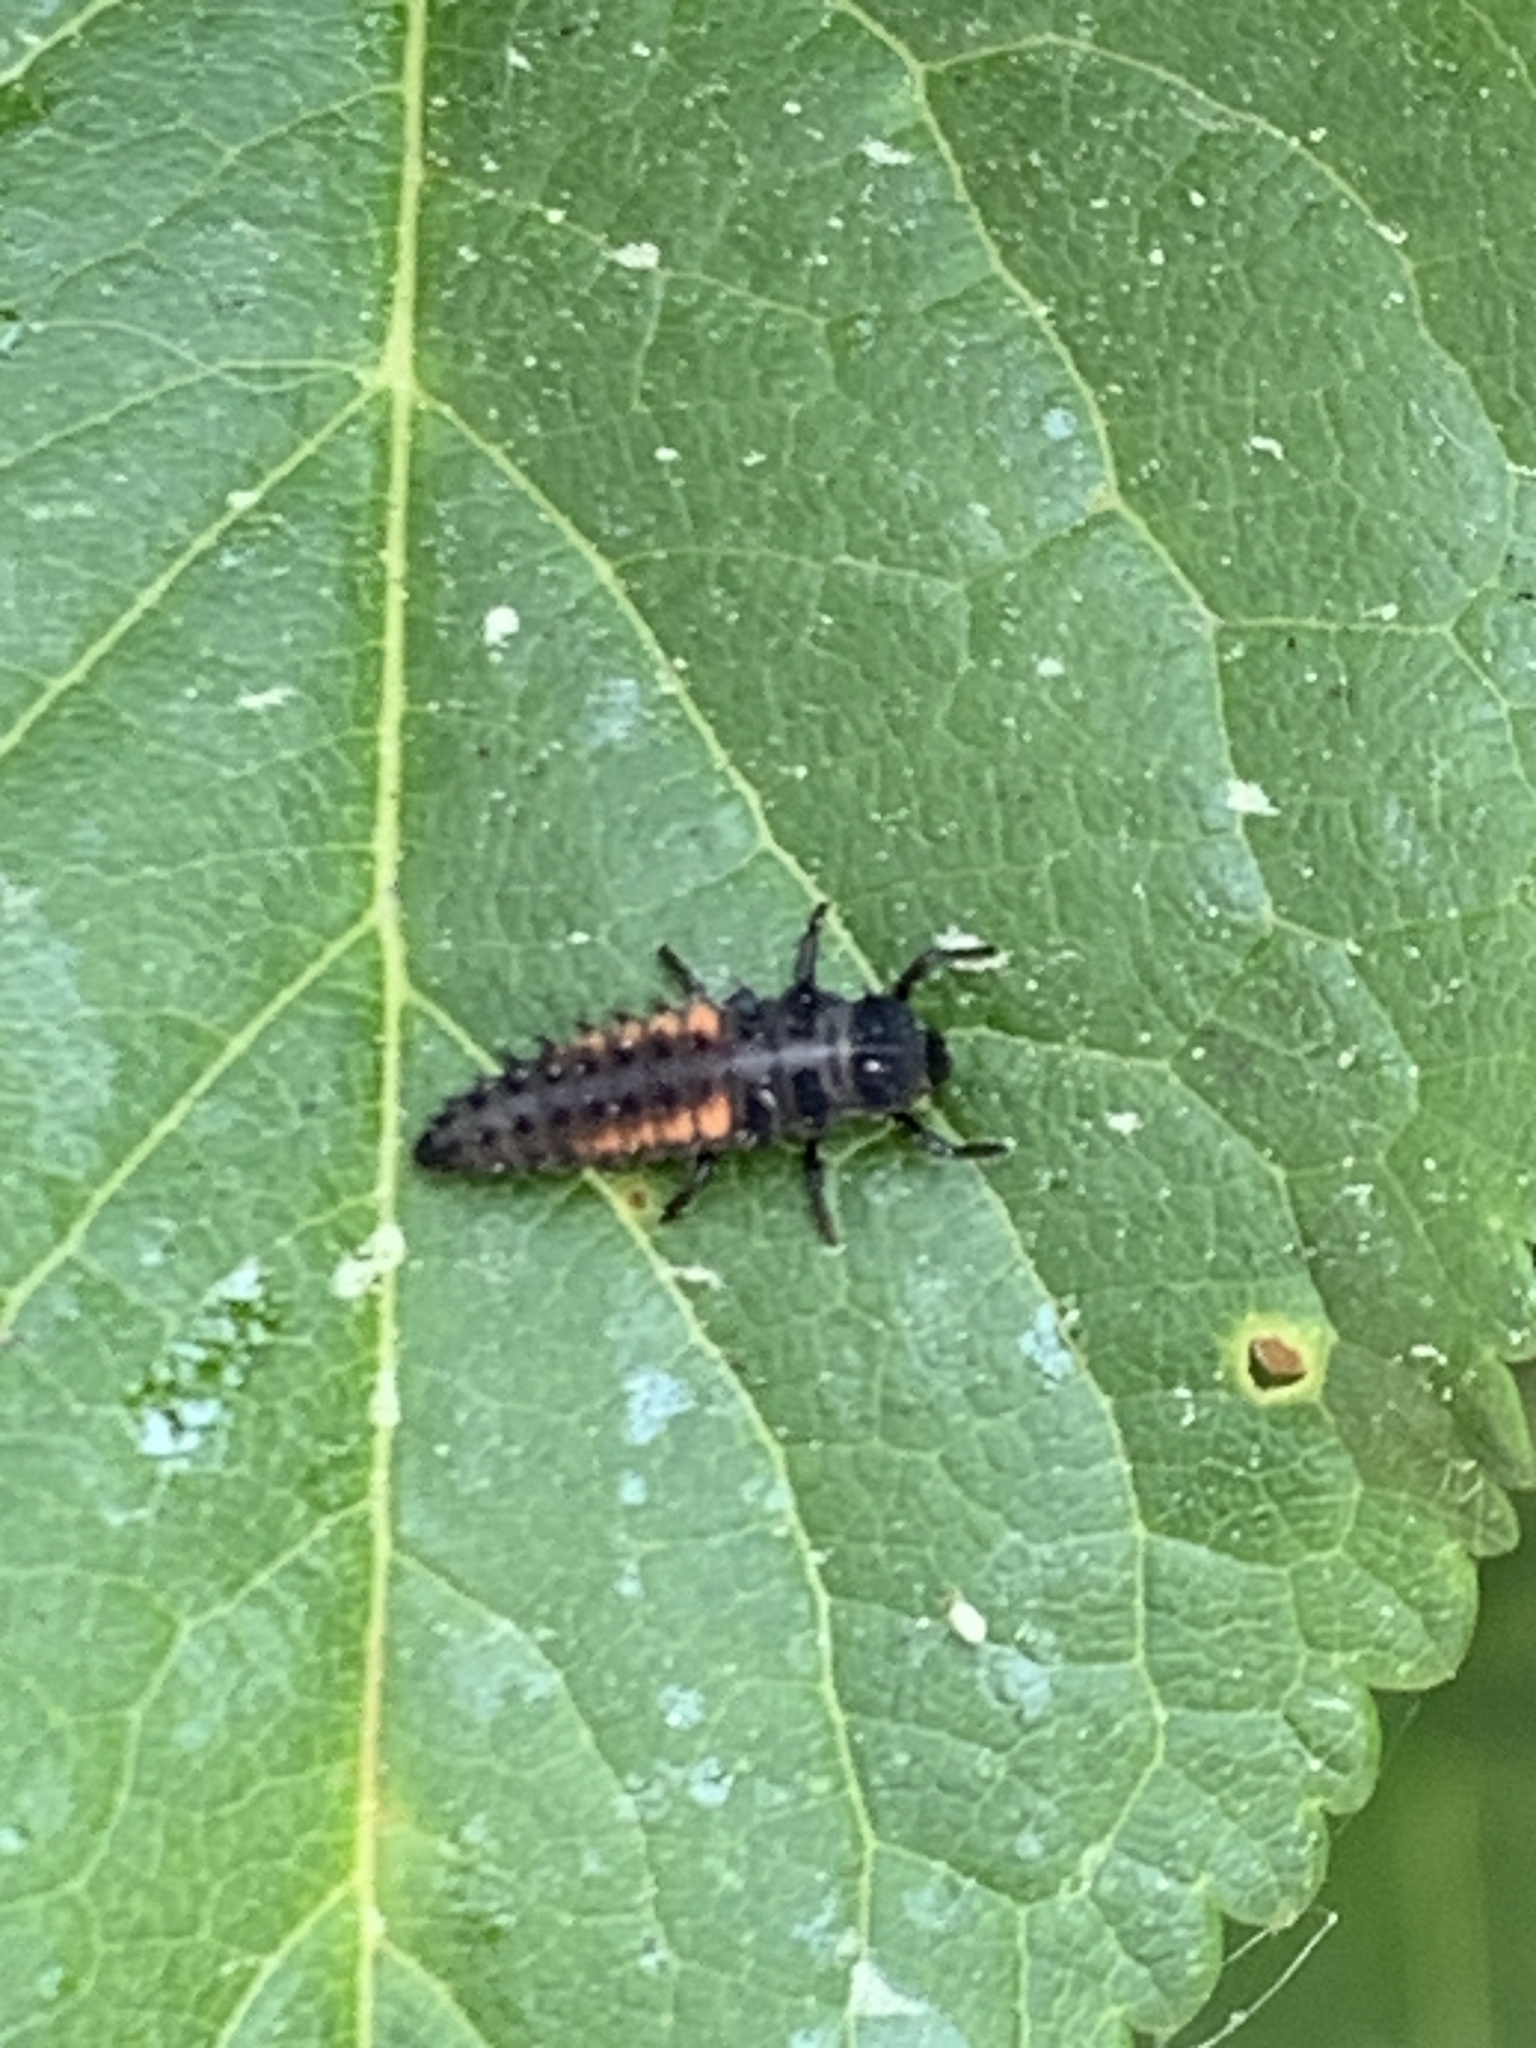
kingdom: Animalia
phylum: Arthropoda
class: Insecta
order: Coleoptera
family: Coccinellidae
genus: Harmonia
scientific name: Harmonia axyridis
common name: Harlequin ladybird
